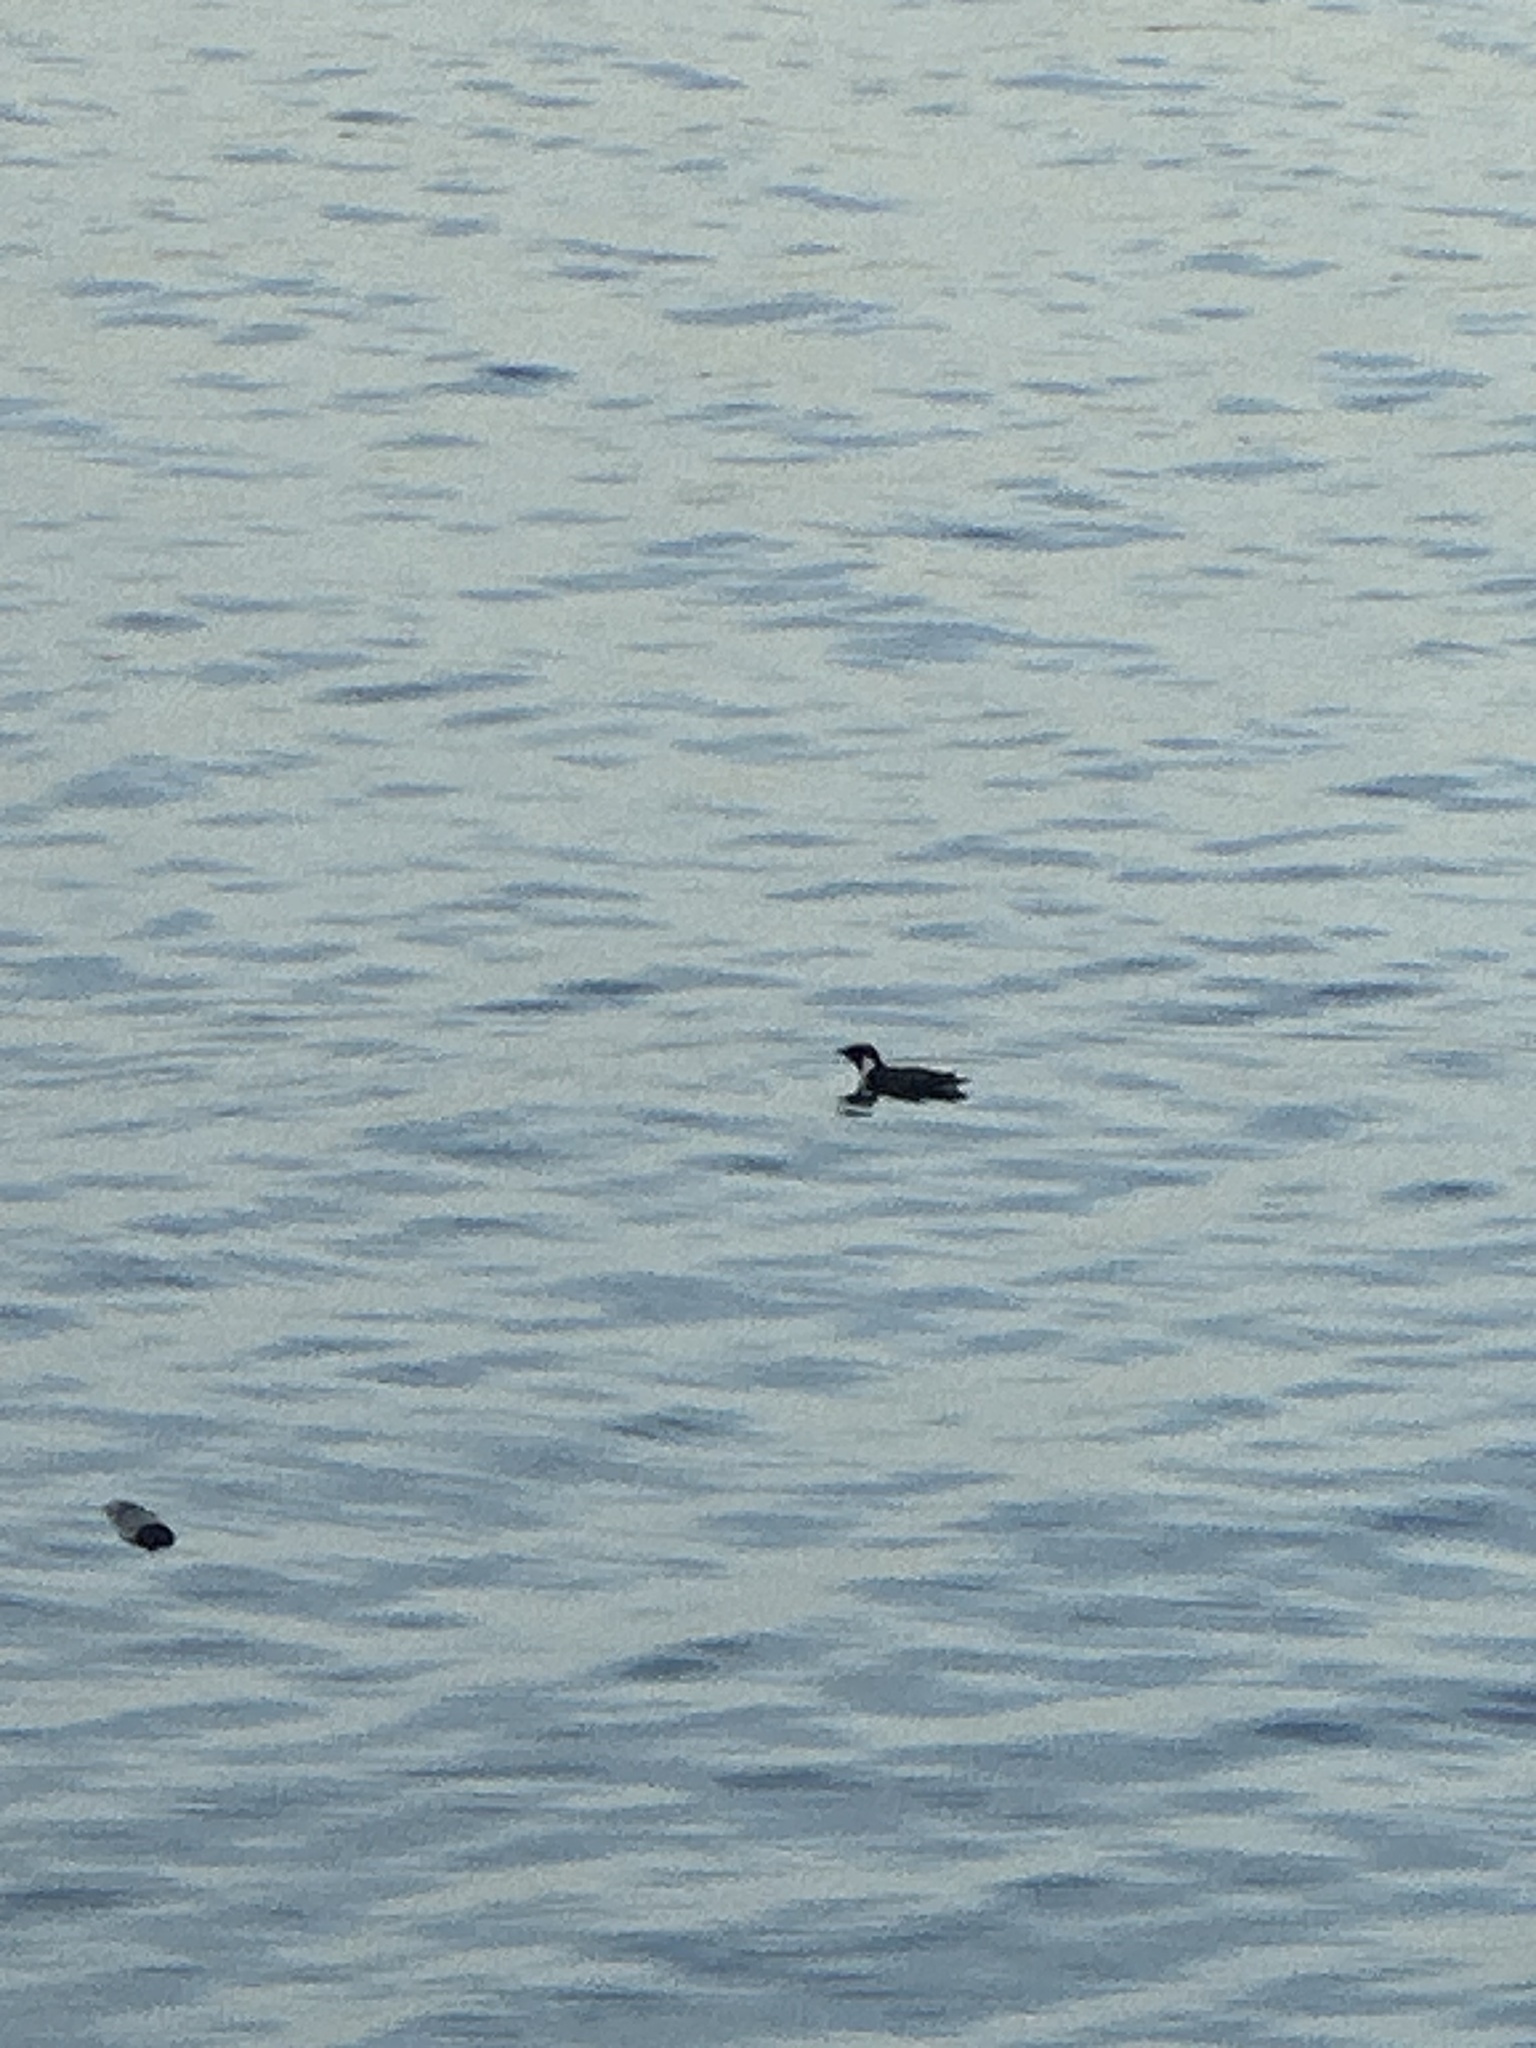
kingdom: Animalia
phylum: Chordata
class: Aves
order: Charadriiformes
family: Alcidae
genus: Synthliboramphus
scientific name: Synthliboramphus antiquus
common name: Ancient murrelet
